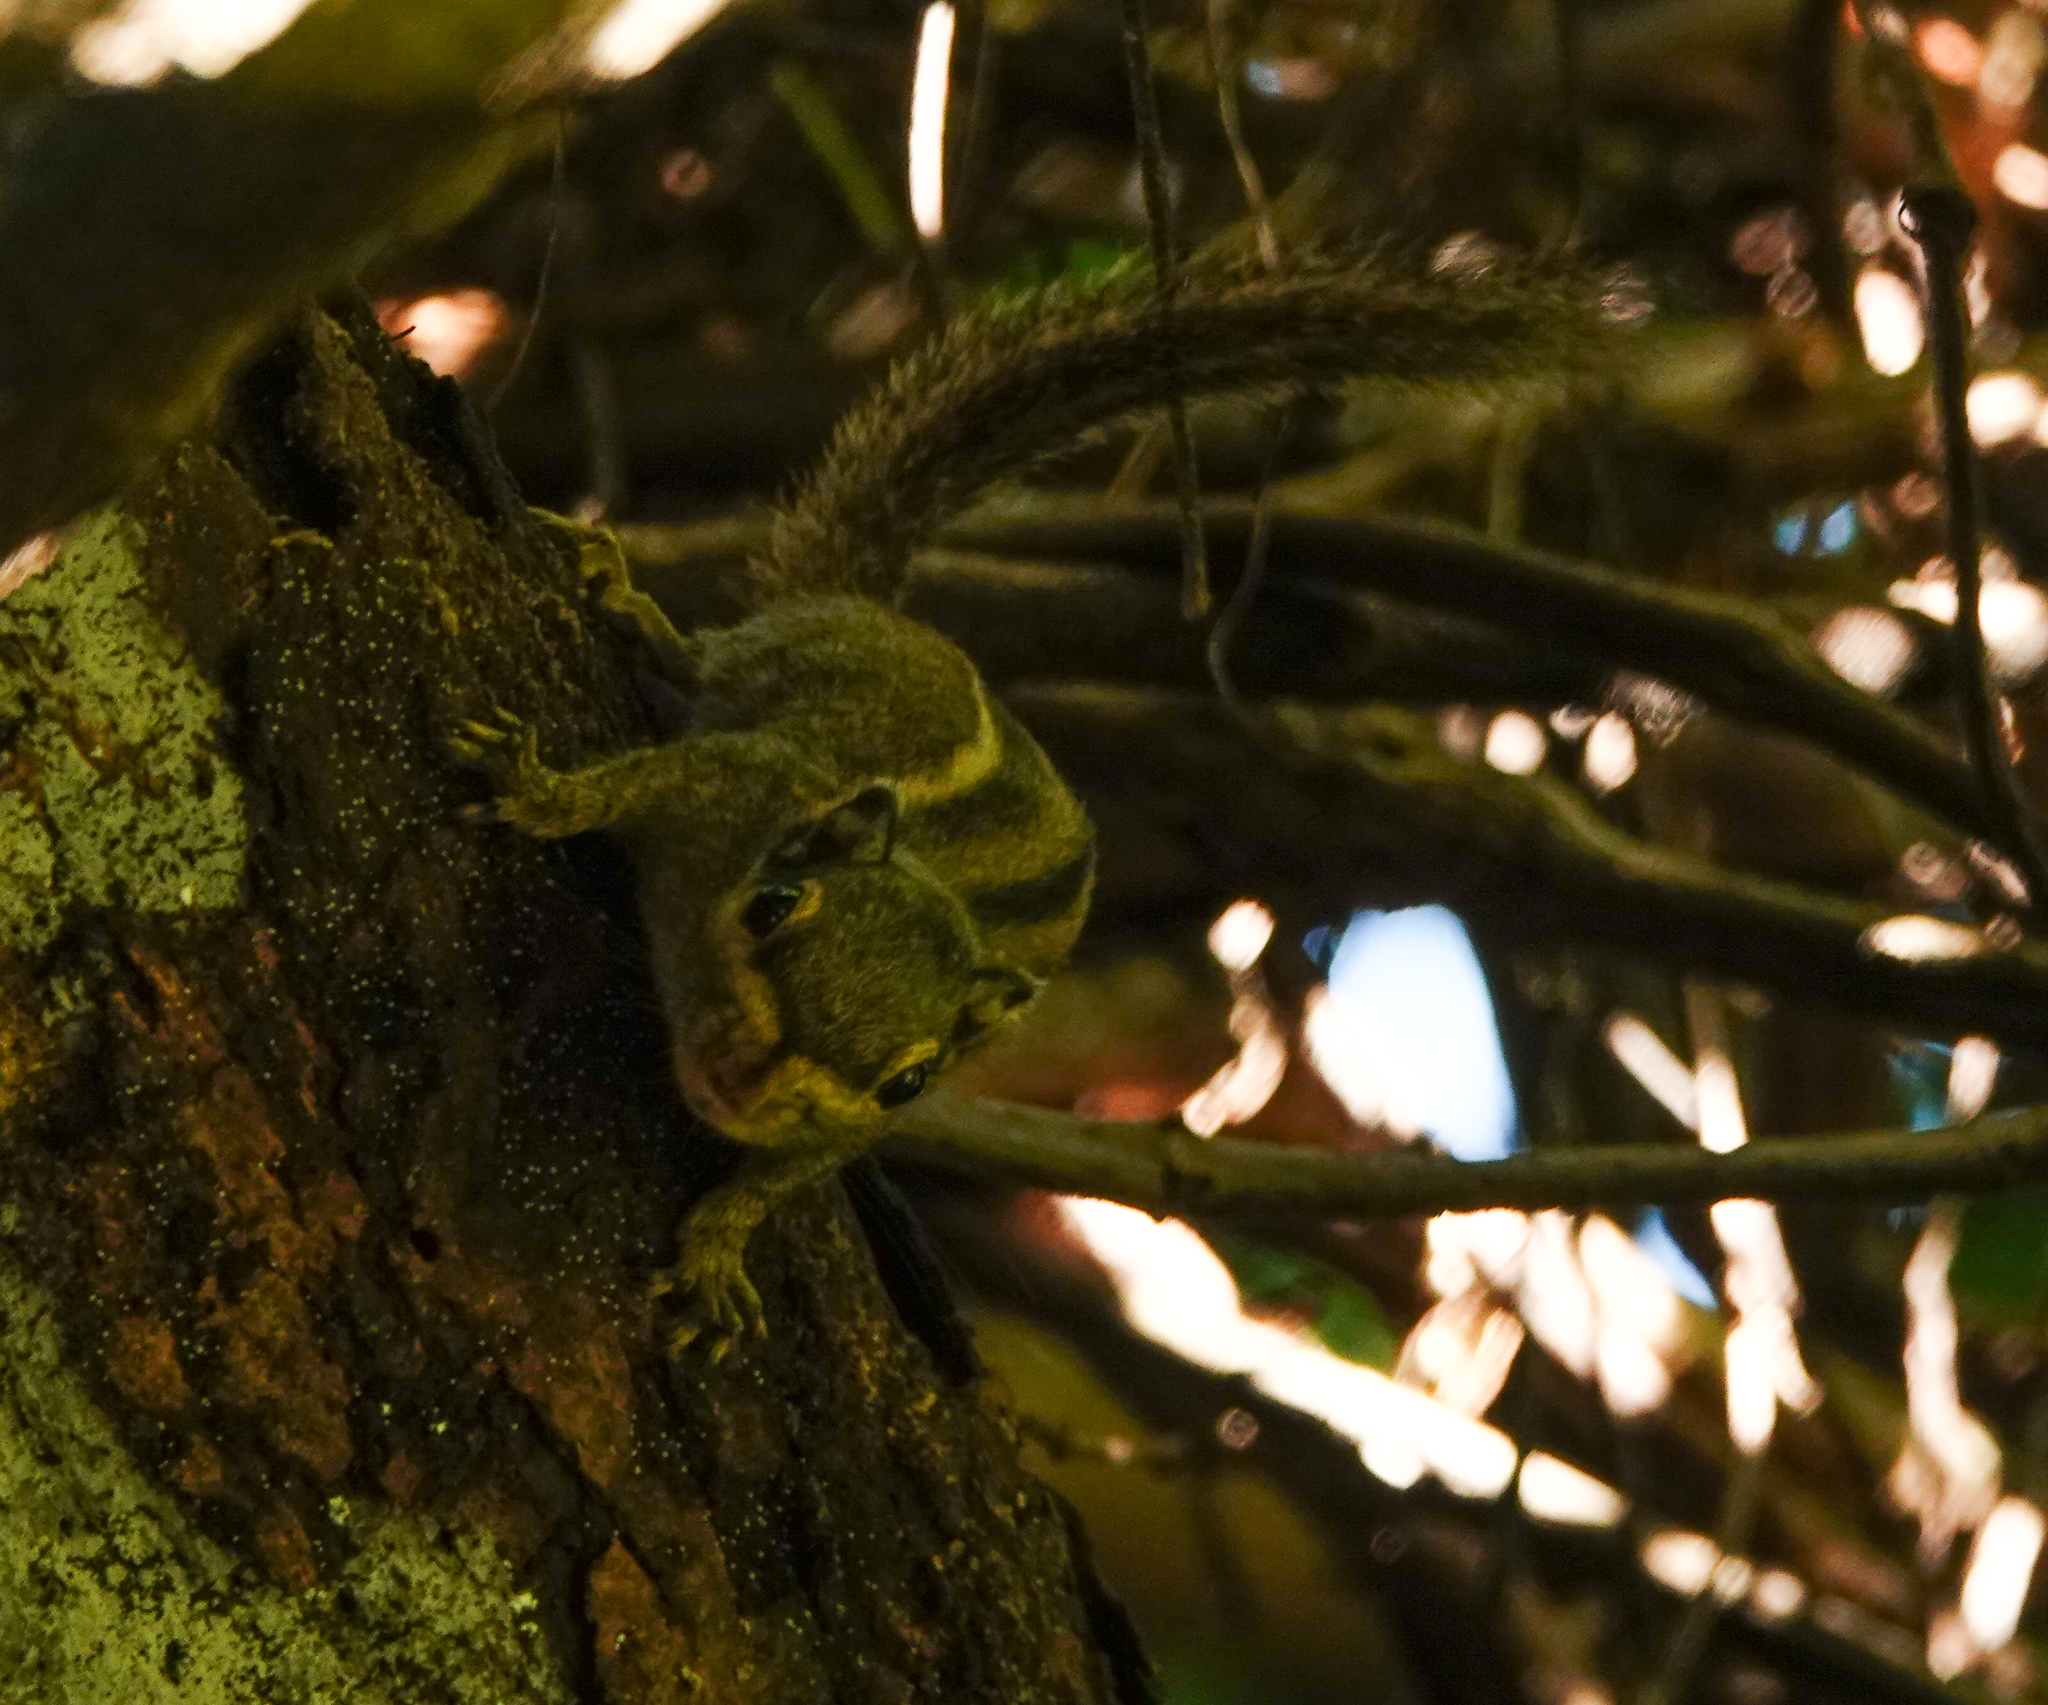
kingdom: Animalia
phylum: Chordata
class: Mammalia
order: Rodentia
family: Sciuridae
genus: Tamiops
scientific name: Tamiops mcclellandii
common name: Himalayan striped squirrel
